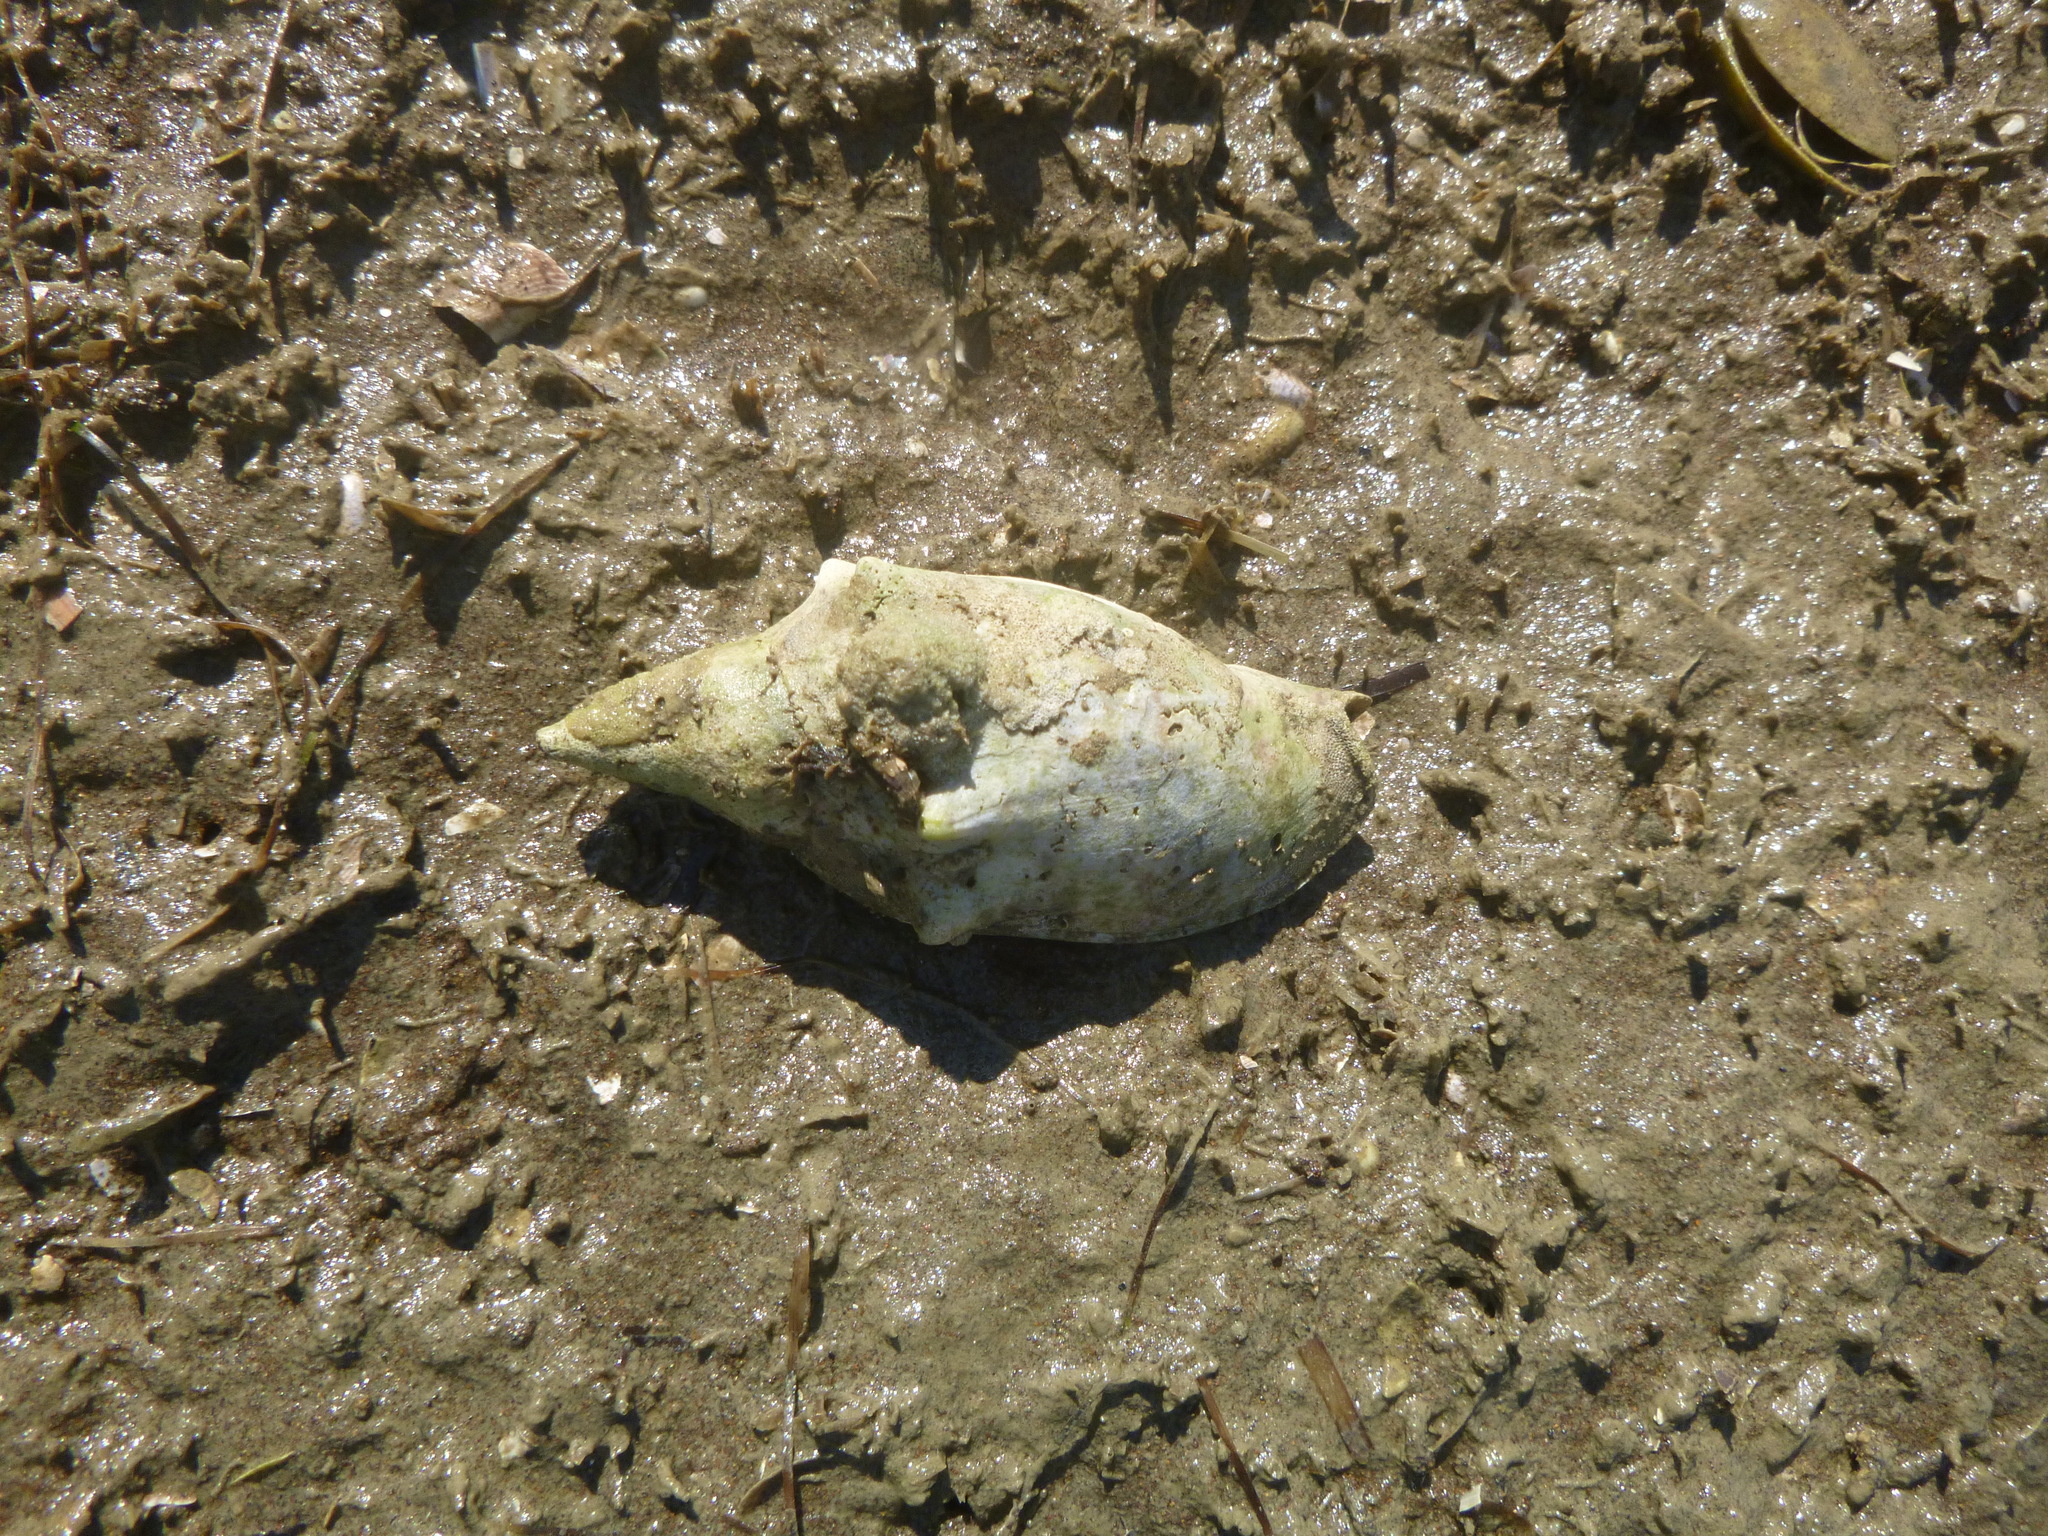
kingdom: Animalia
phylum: Mollusca
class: Gastropoda
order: Neogastropoda
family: Volutidae
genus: Alcithoe
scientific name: Alcithoe arabica
